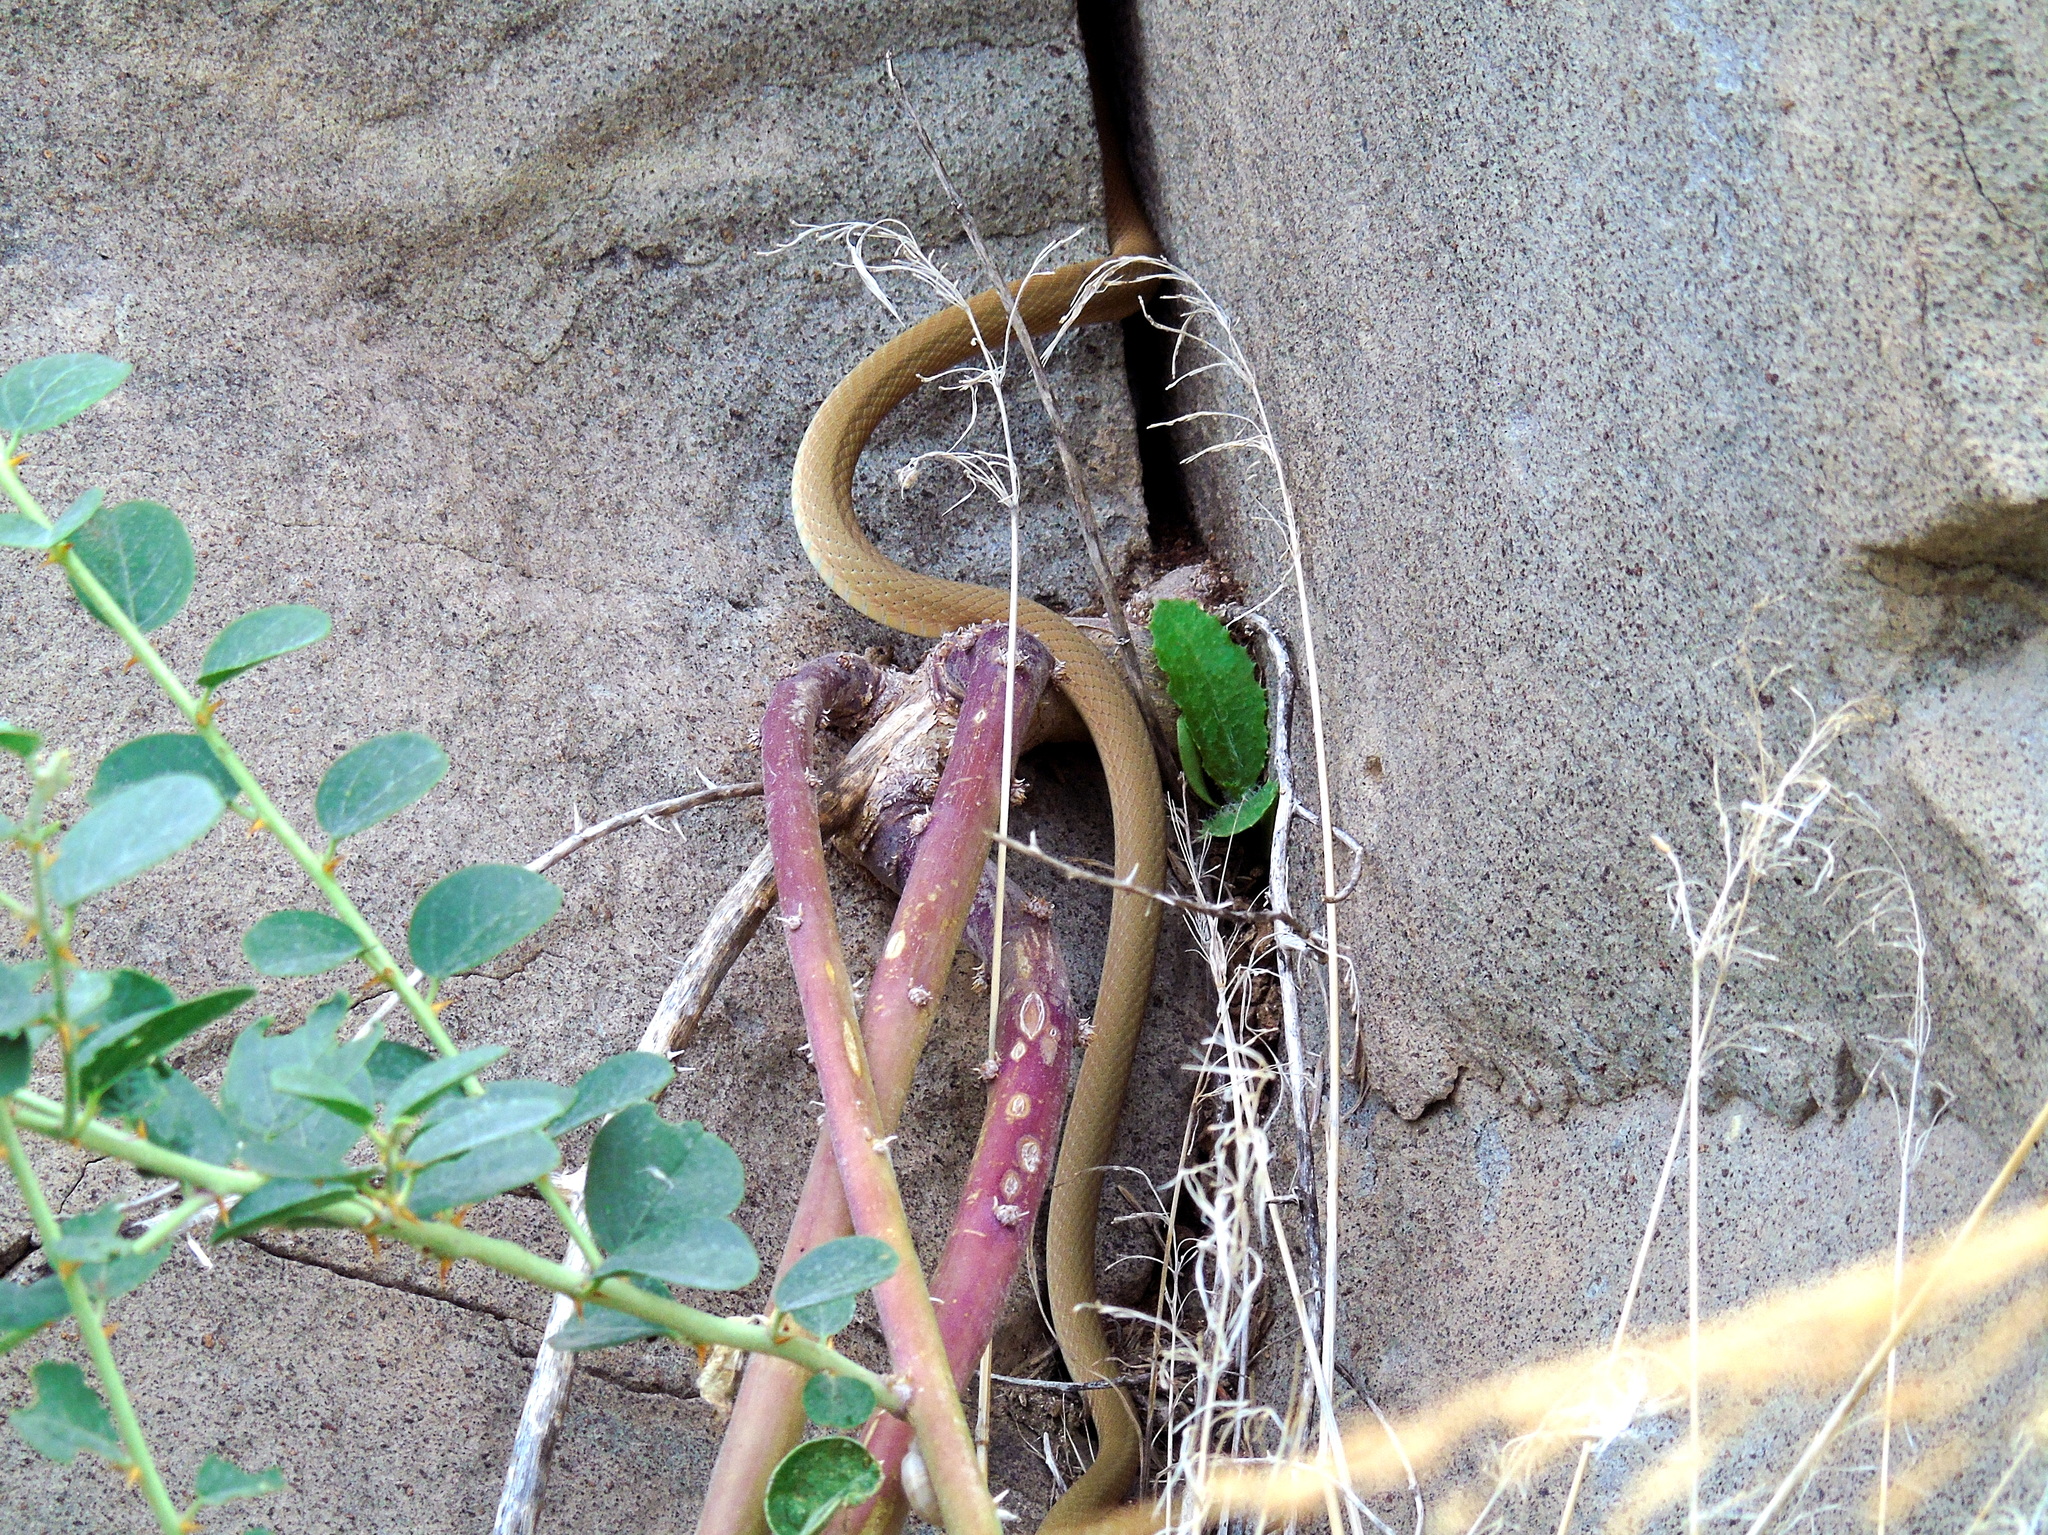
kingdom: Animalia
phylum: Chordata
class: Squamata
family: Colubridae
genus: Platyceps
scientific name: Platyceps najadum
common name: Dahl's whip snake
